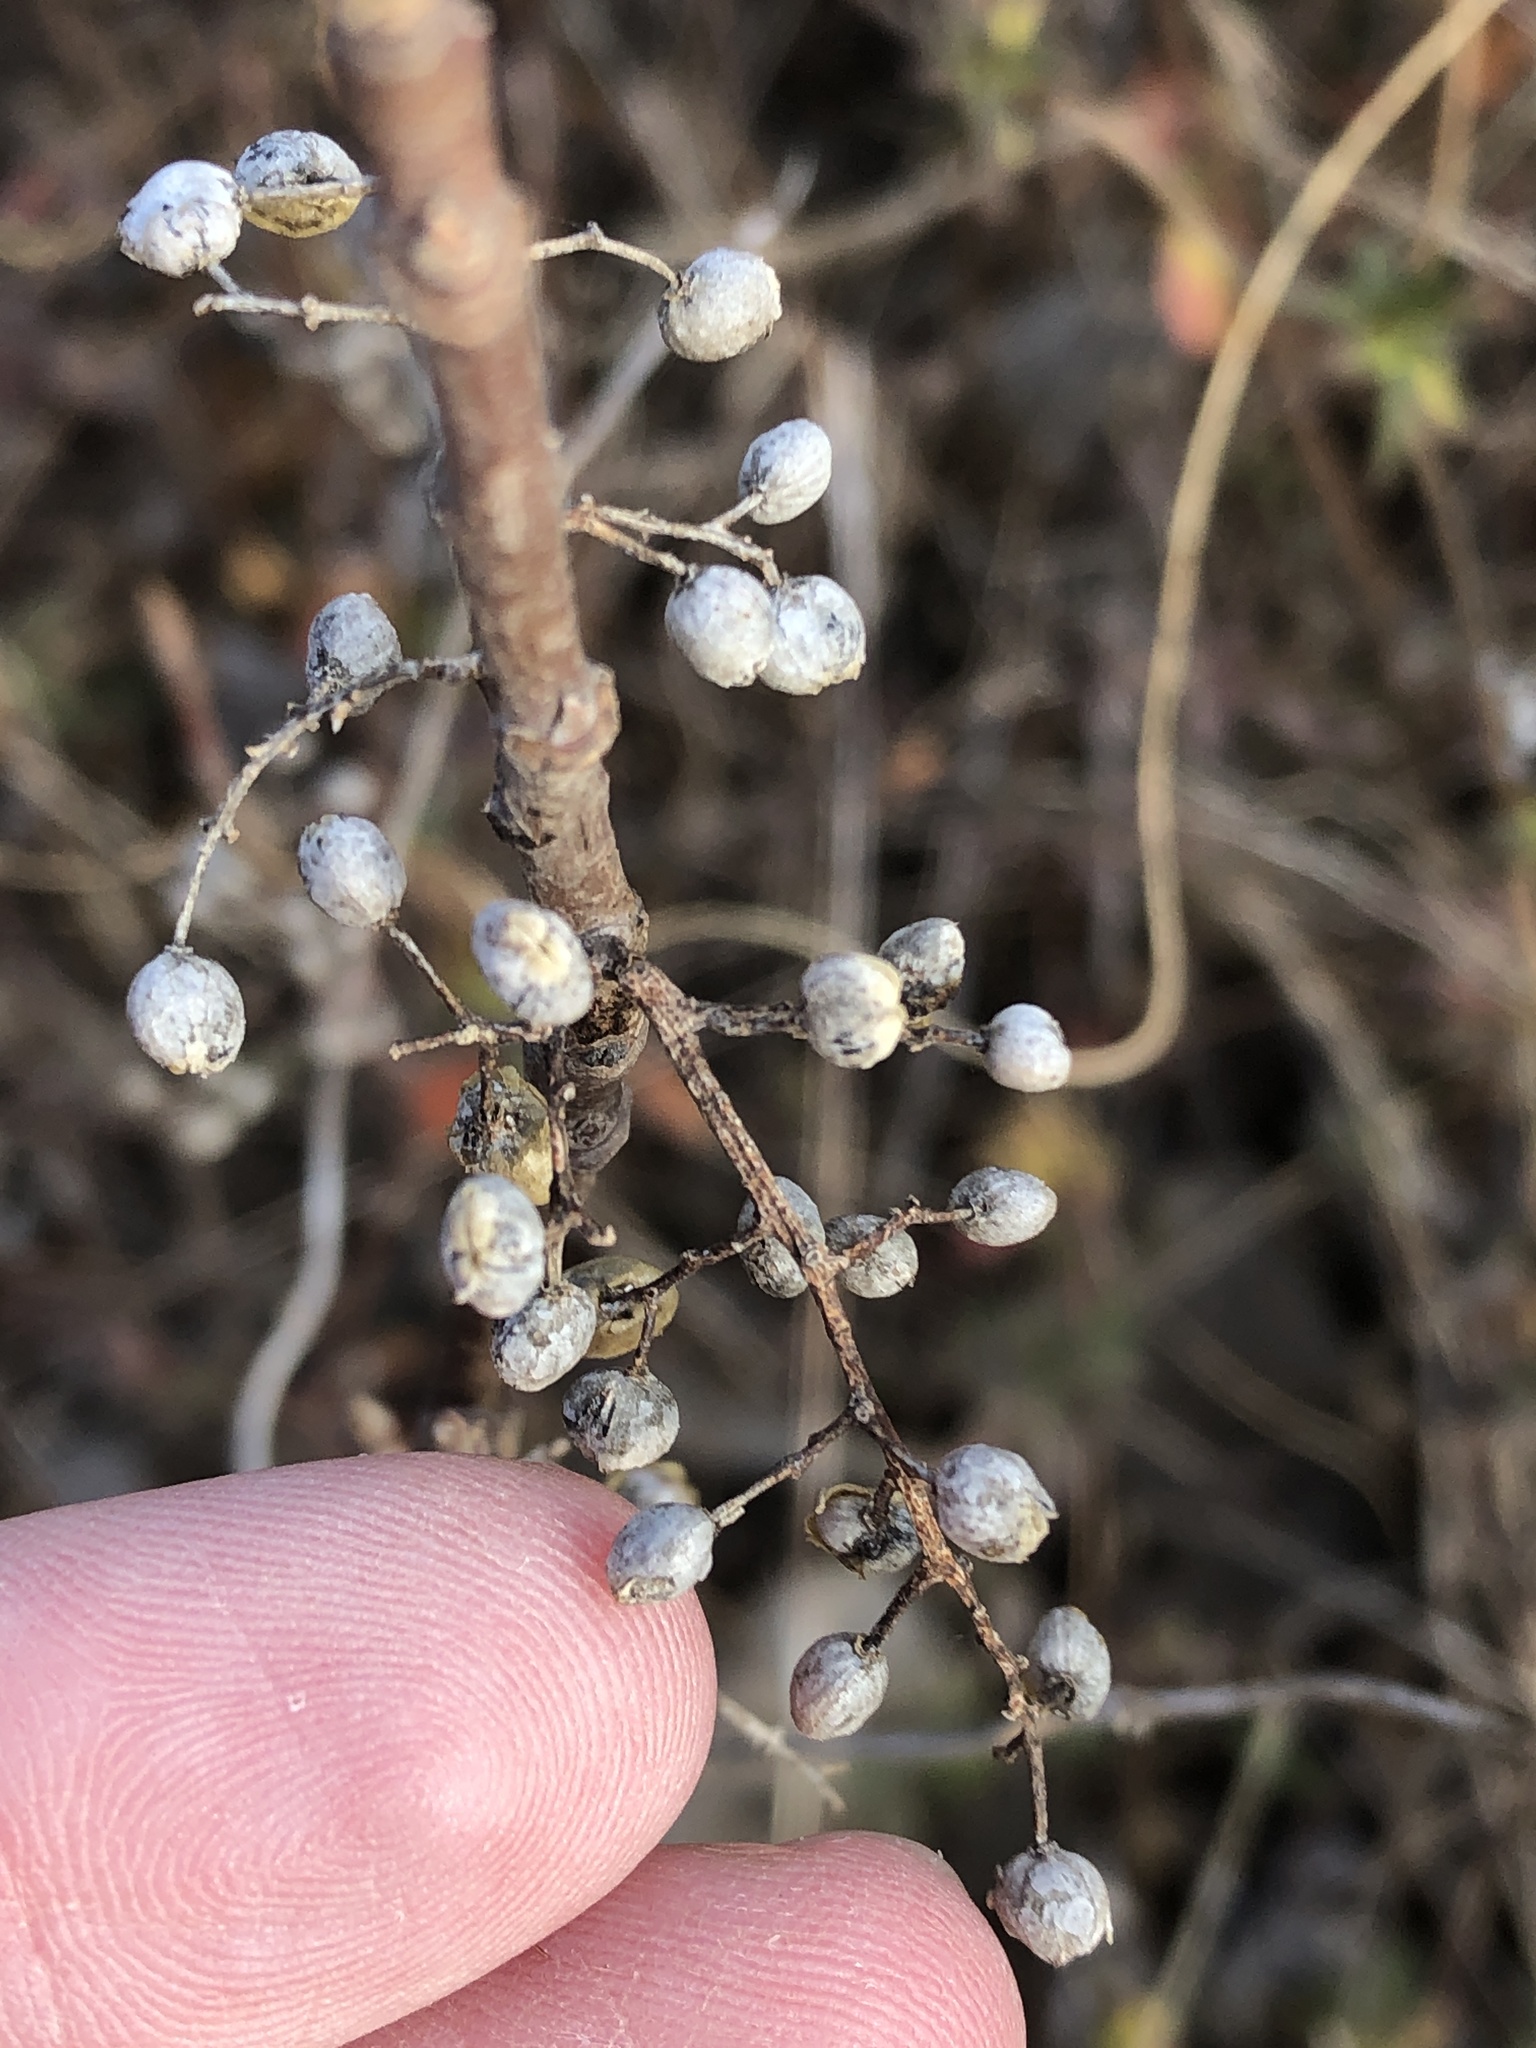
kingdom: Plantae
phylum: Tracheophyta
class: Magnoliopsida
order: Sapindales
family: Anacardiaceae
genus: Toxicodendron
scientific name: Toxicodendron radicans
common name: Poison ivy
